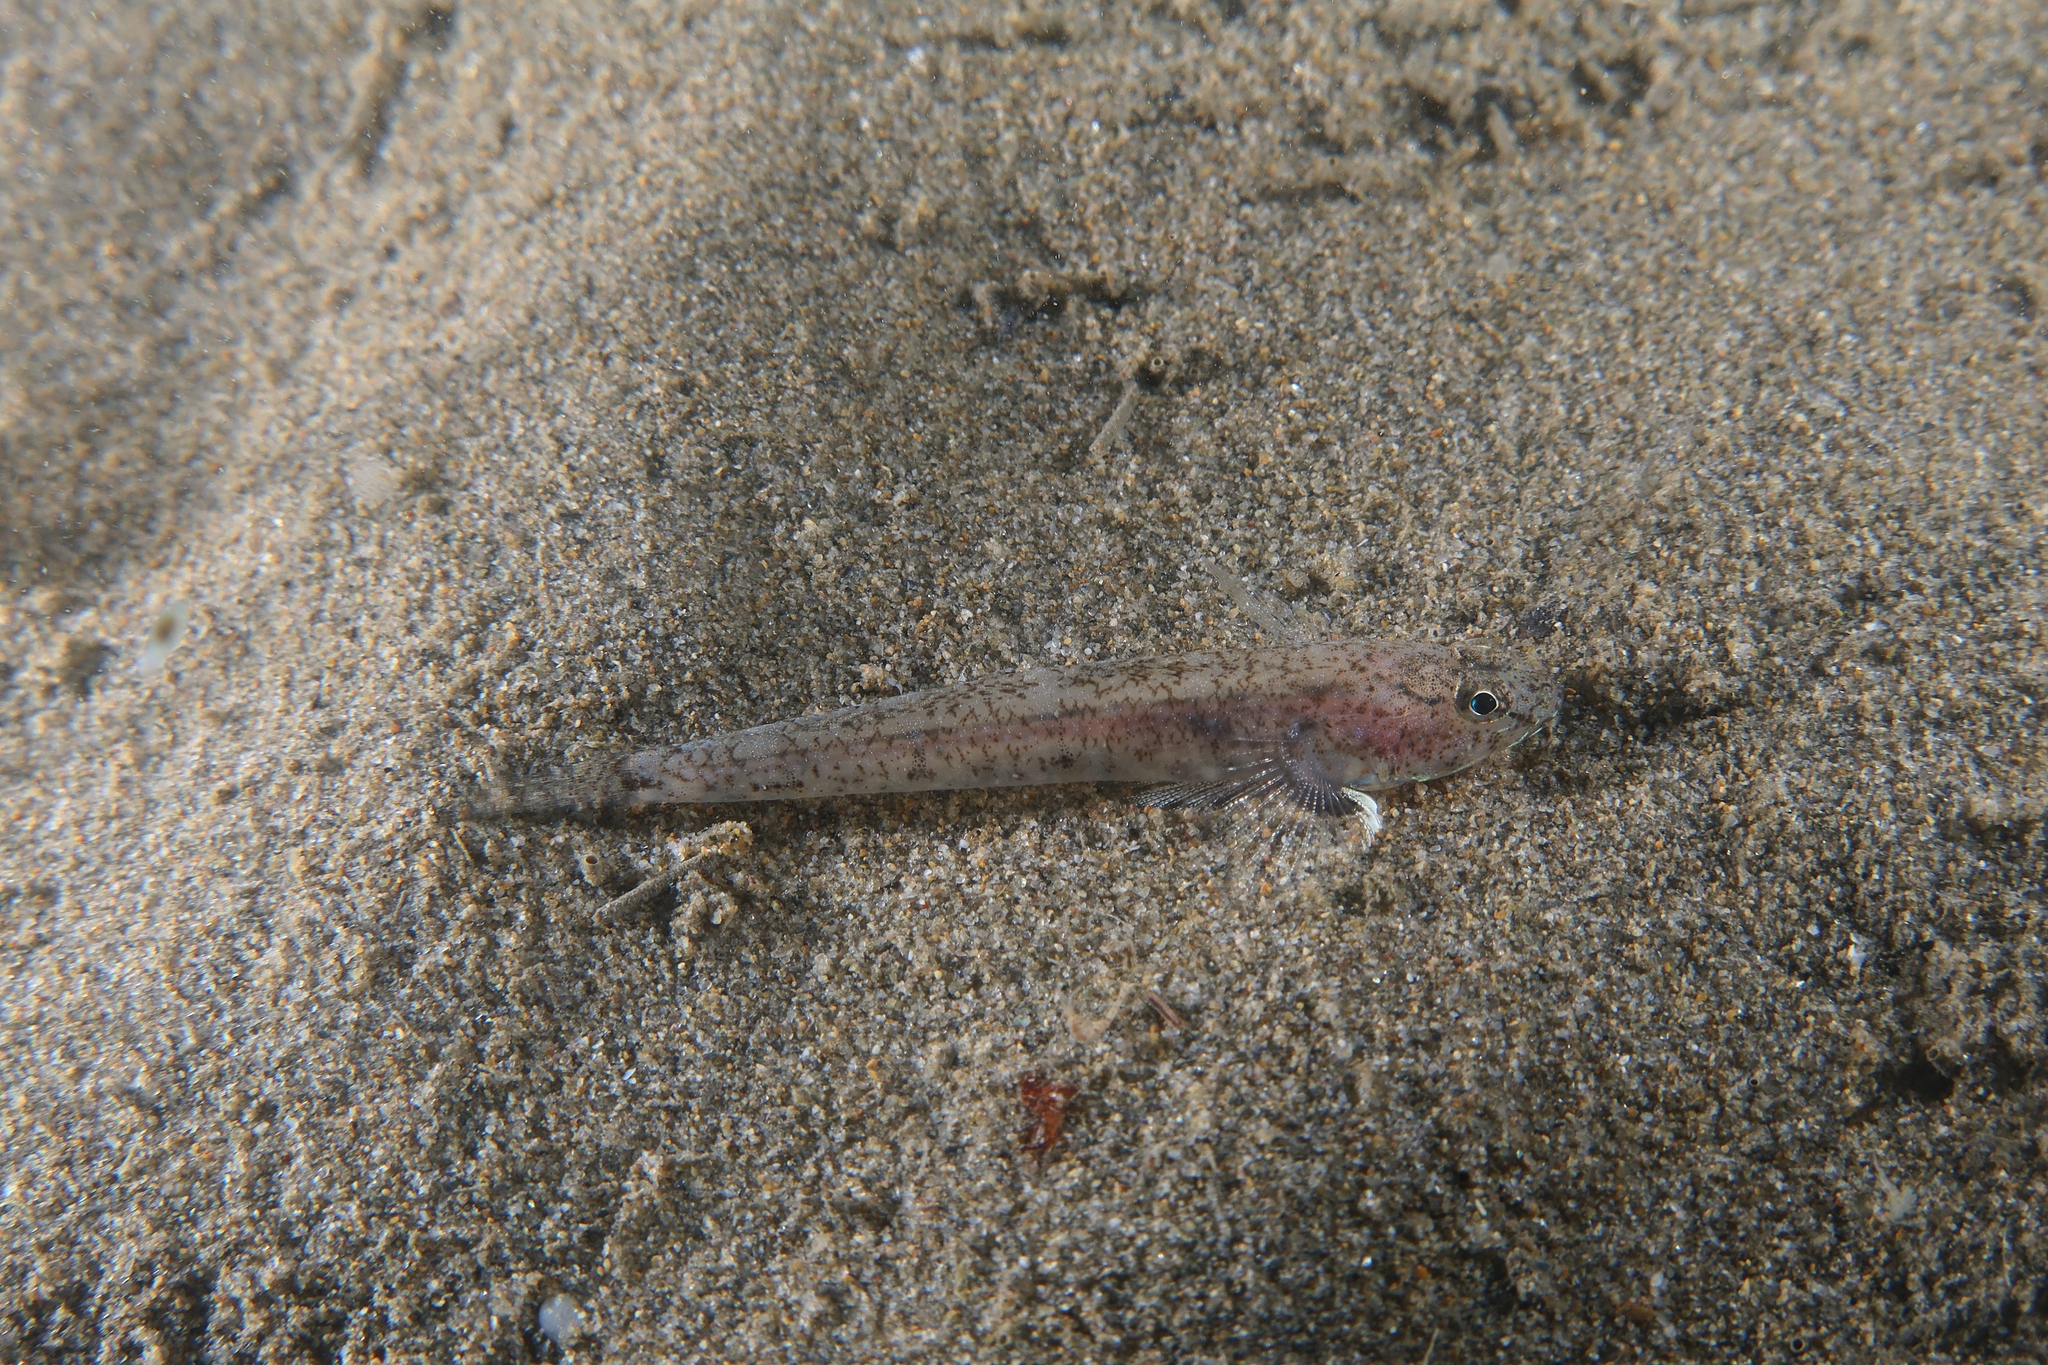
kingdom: Animalia
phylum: Chordata
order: Perciformes
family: Gobiidae
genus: Pomatoschistus
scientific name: Pomatoschistus marmoratus
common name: Marbled goby
